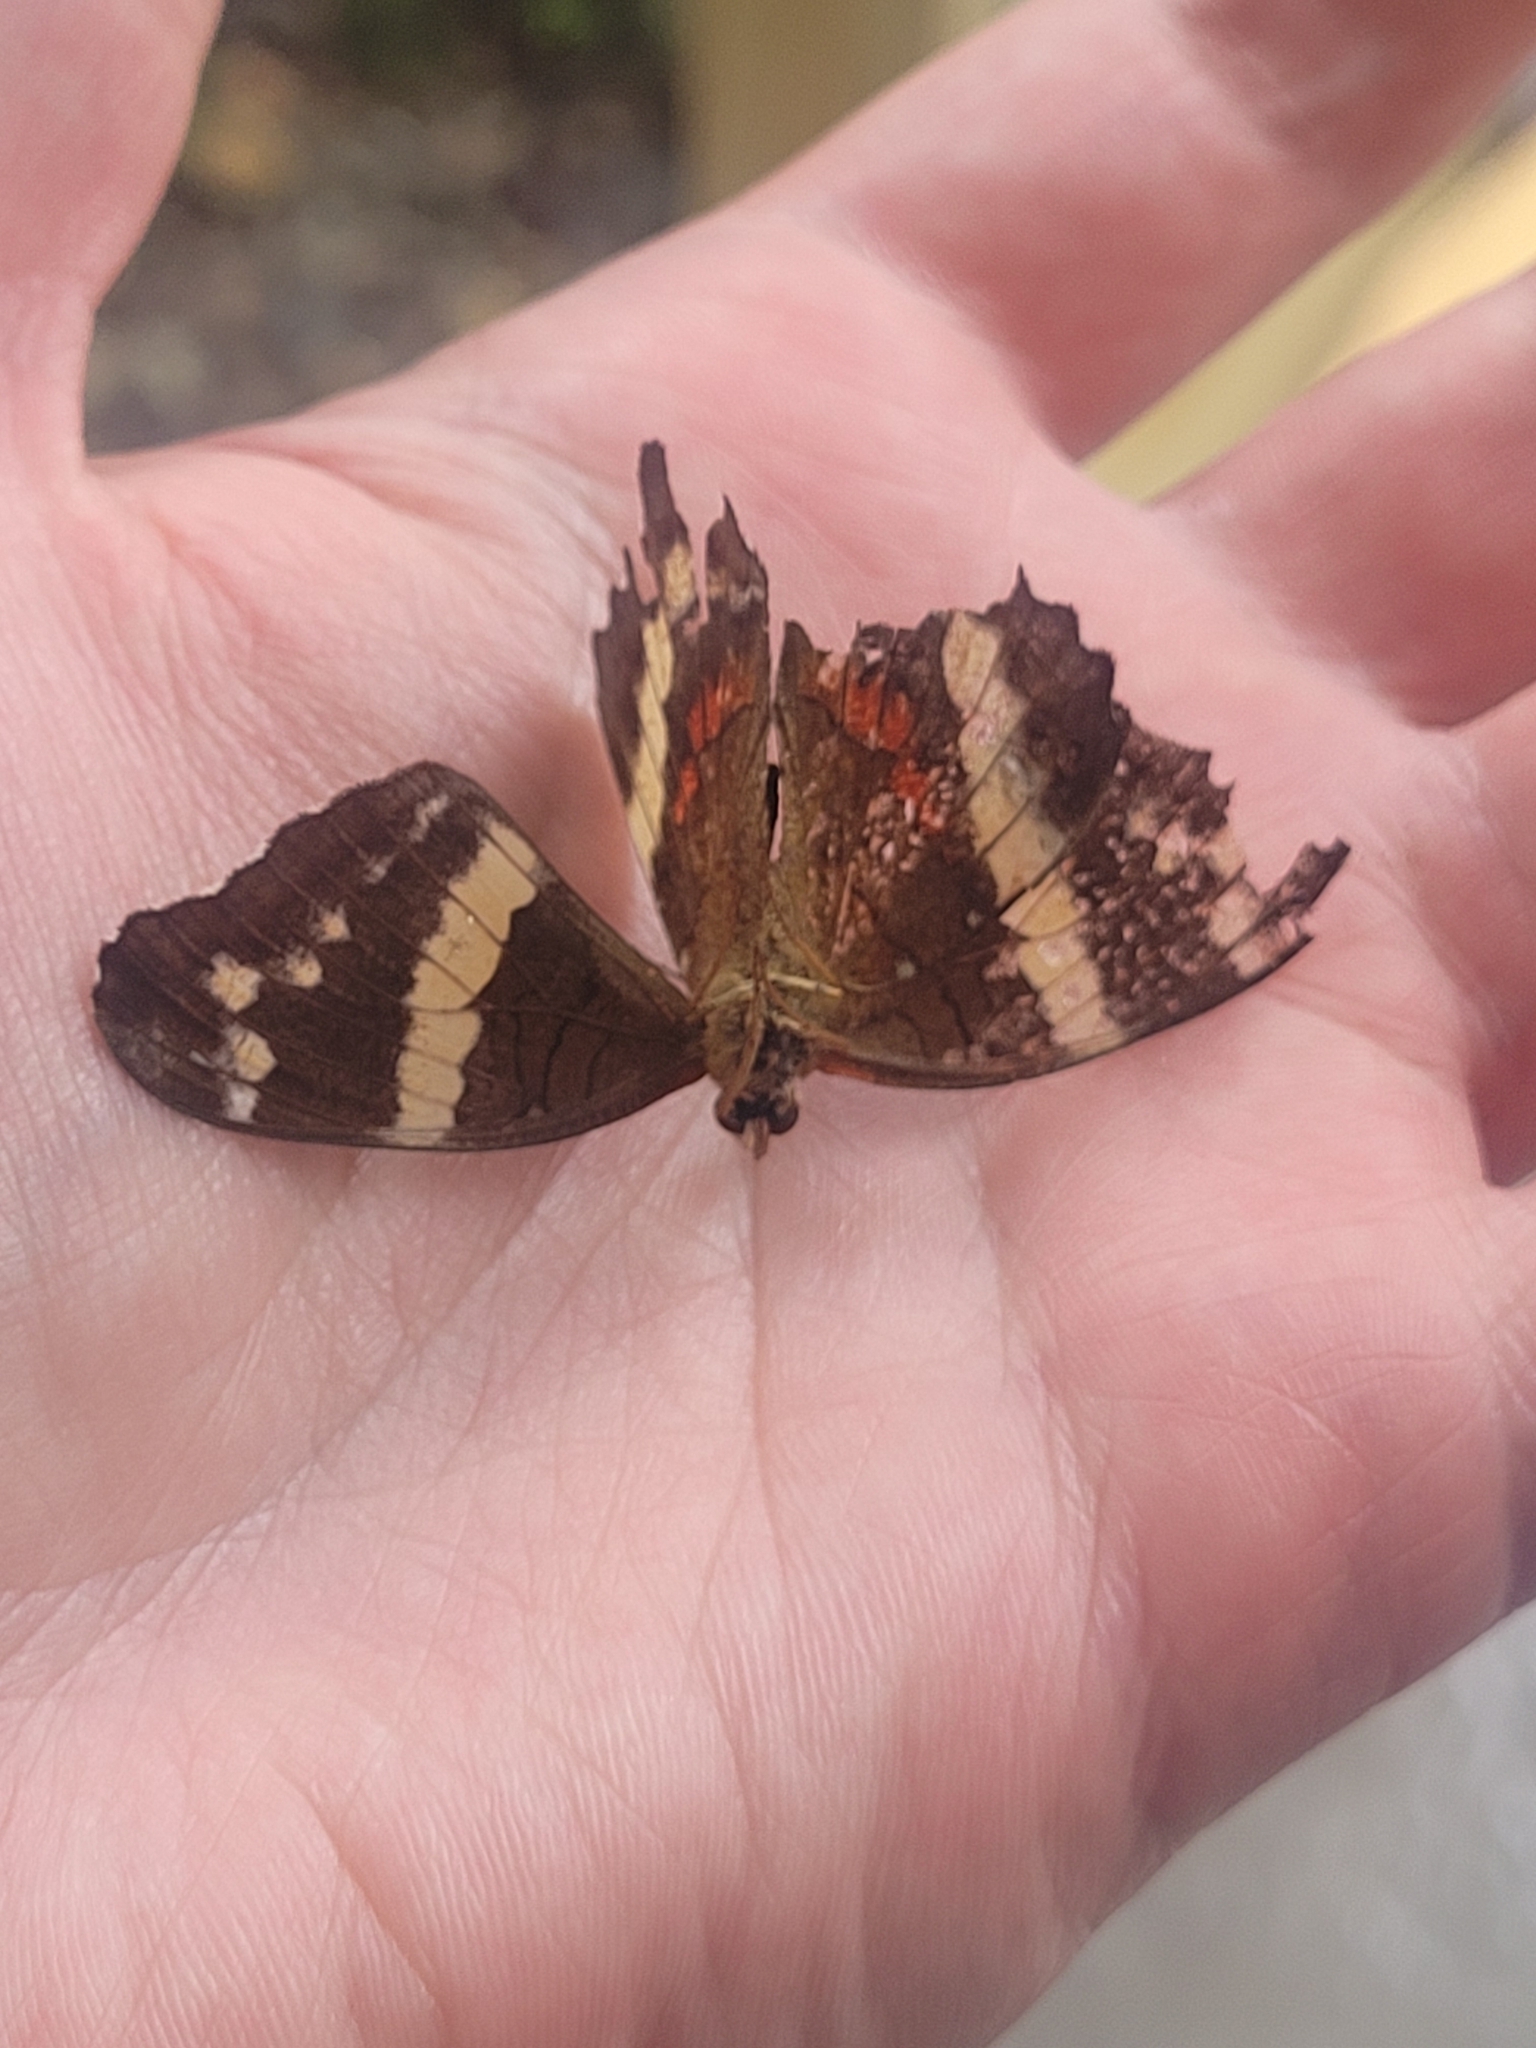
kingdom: Animalia
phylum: Arthropoda
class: Insecta
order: Lepidoptera
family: Nymphalidae
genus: Anartia
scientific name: Anartia fatima
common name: Banded peacock
